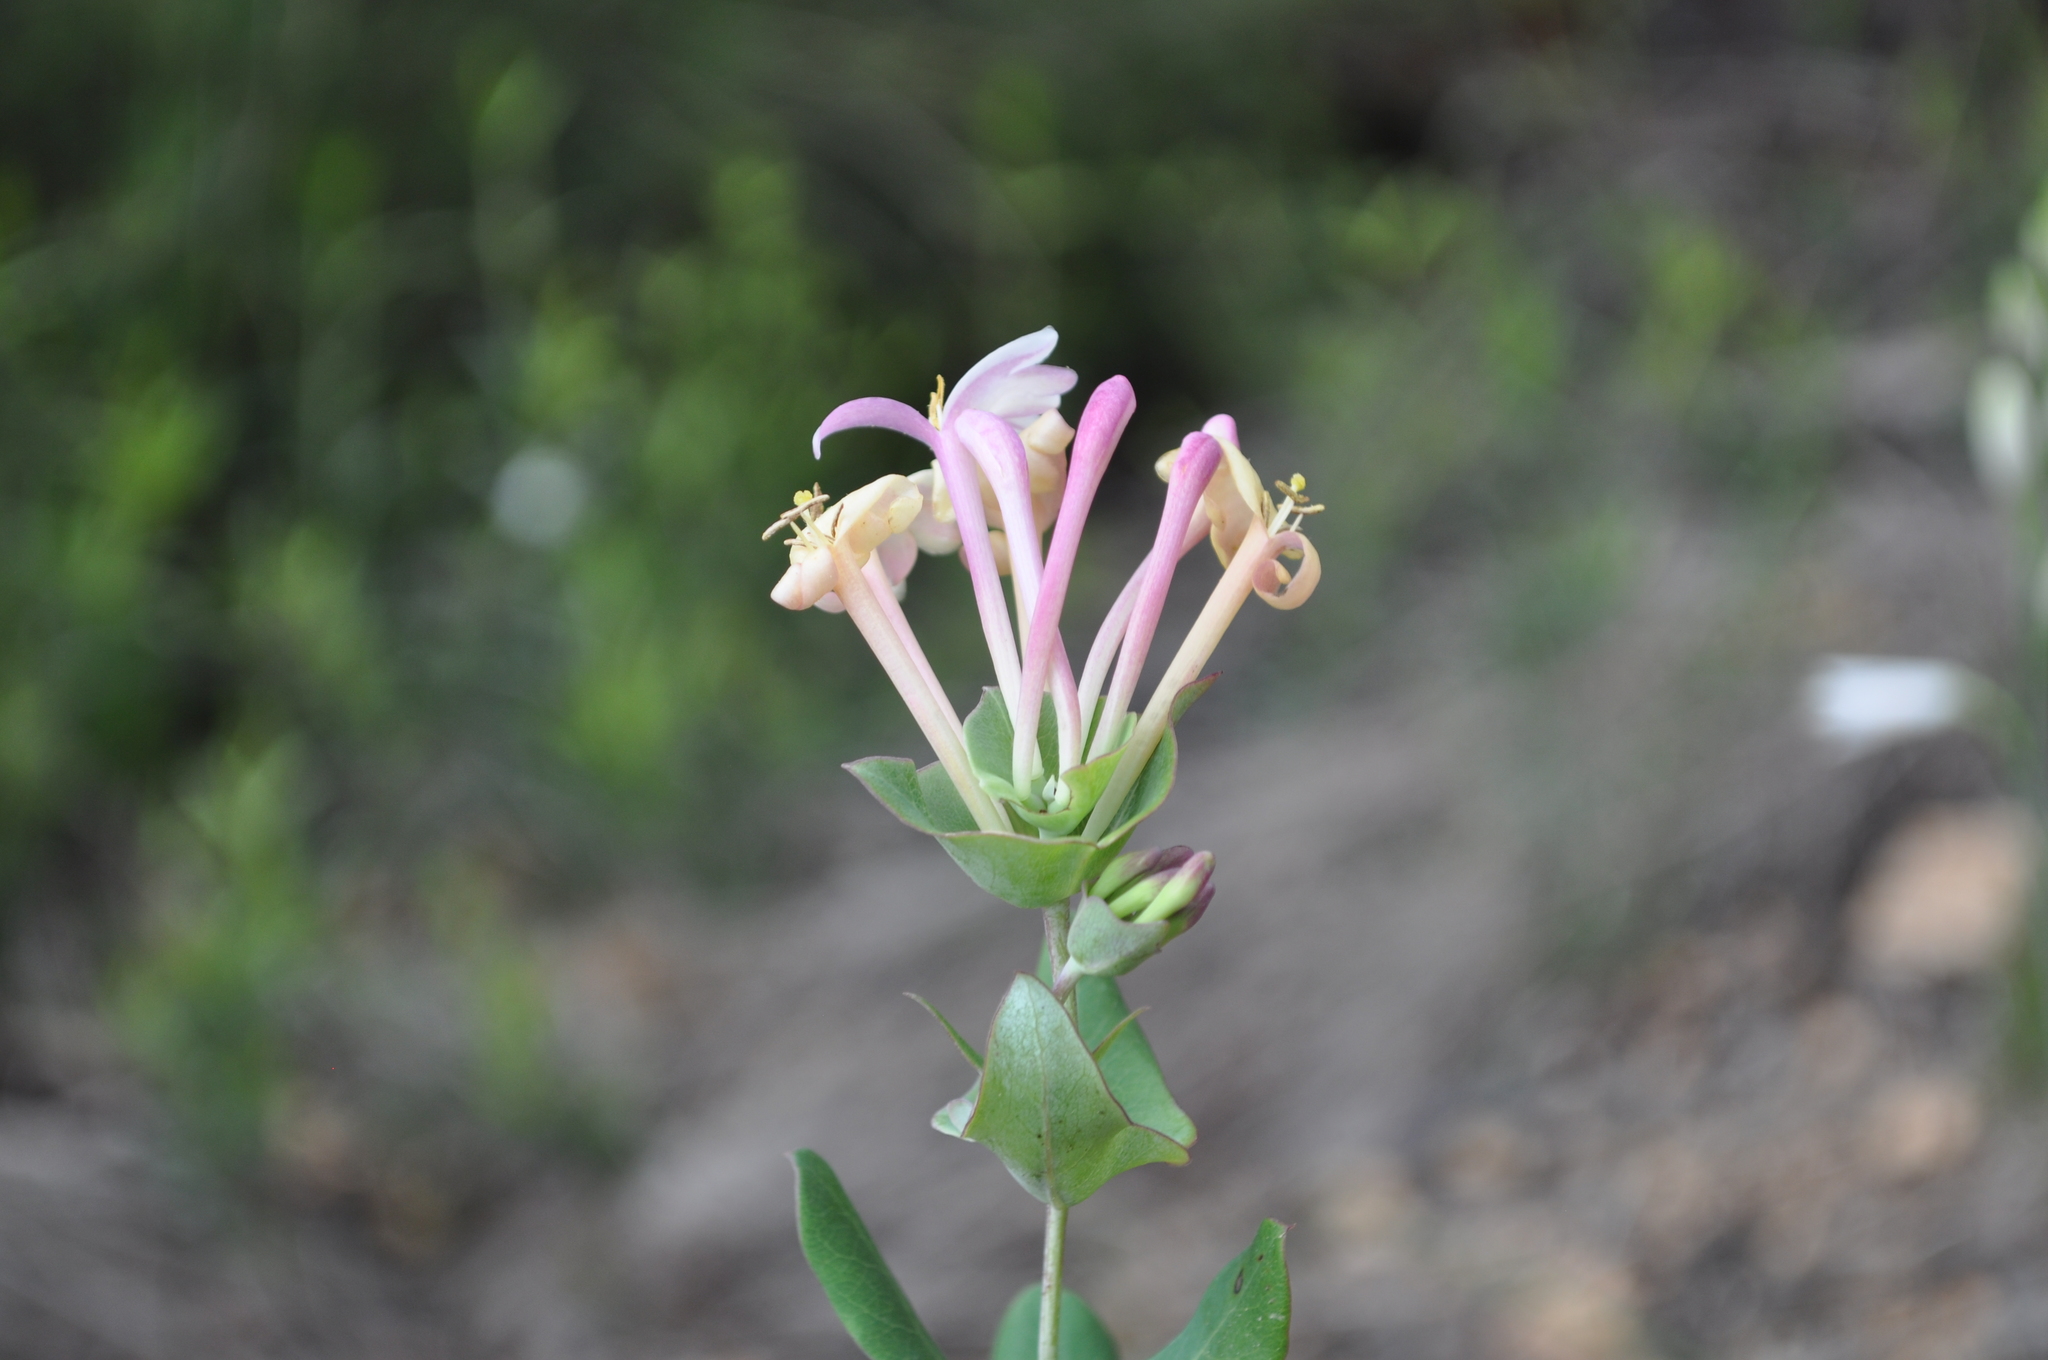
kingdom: Plantae
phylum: Tracheophyta
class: Magnoliopsida
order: Dipsacales
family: Caprifoliaceae
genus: Lonicera
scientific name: Lonicera implexa
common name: Minorca honeysuckle
